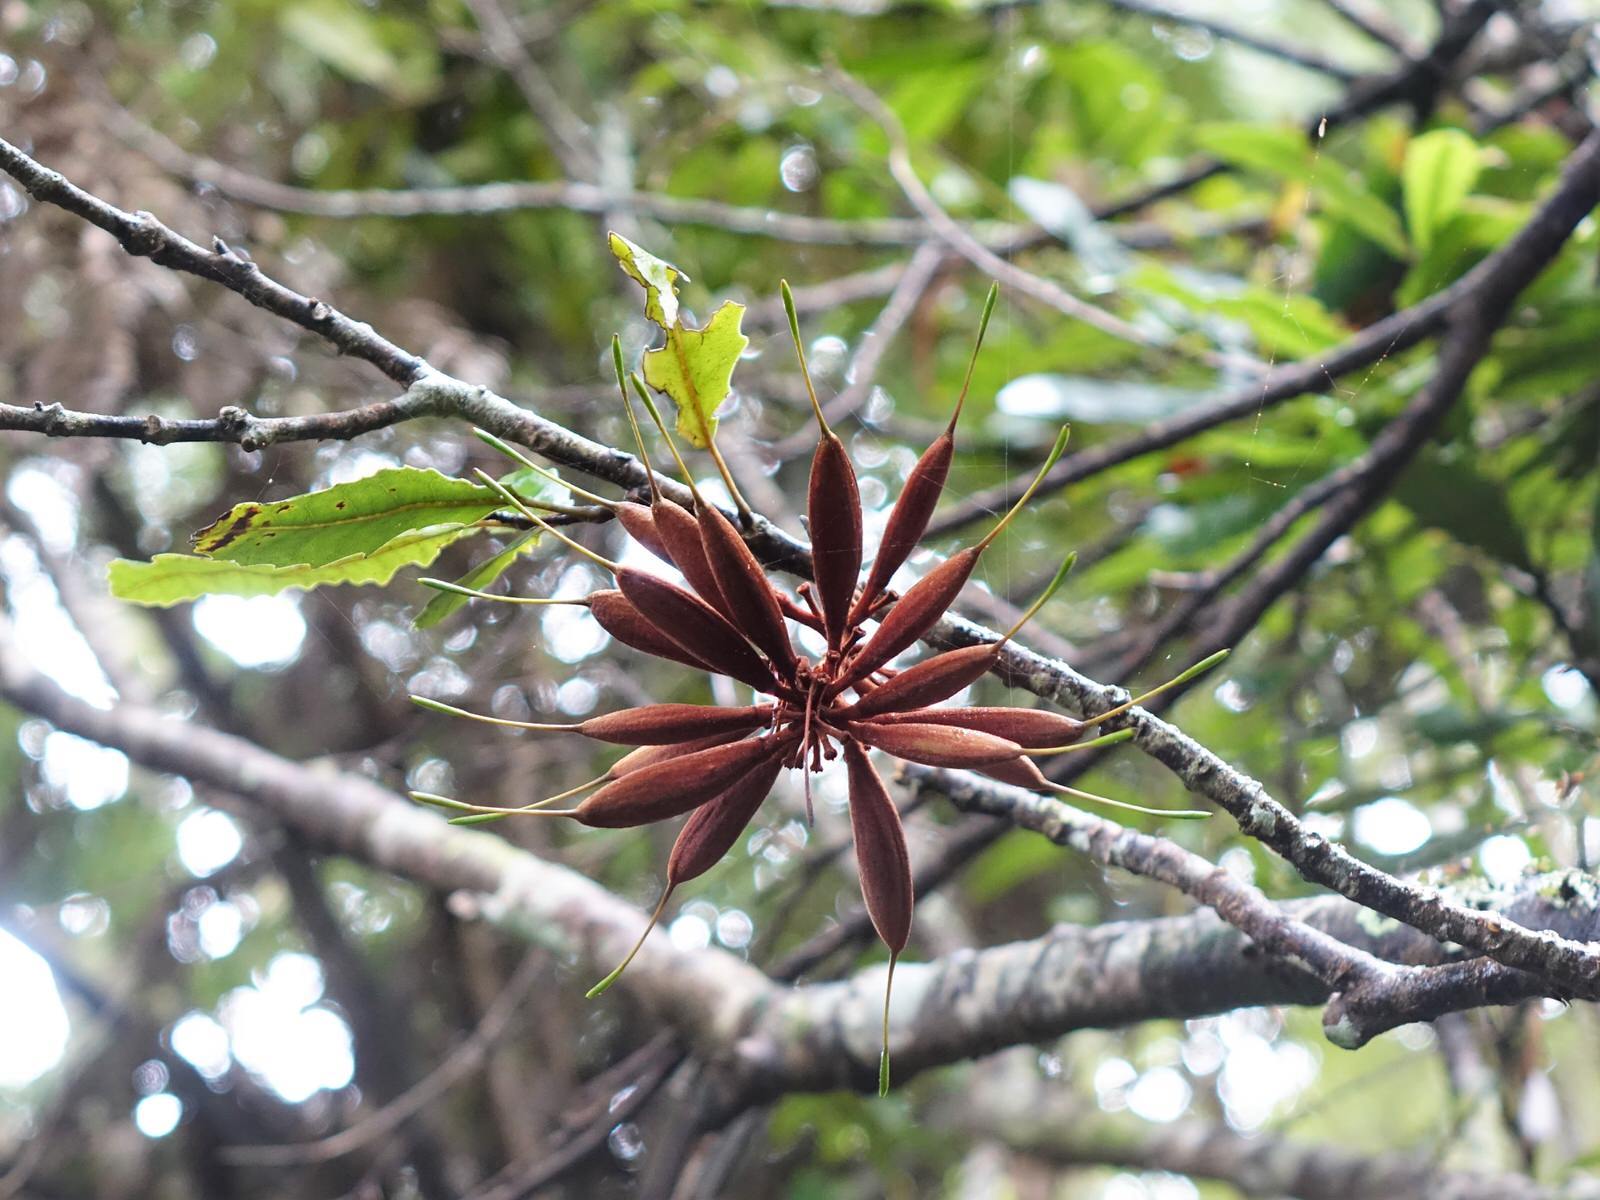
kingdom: Plantae
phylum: Tracheophyta
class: Magnoliopsida
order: Proteales
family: Proteaceae
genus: Knightia
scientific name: Knightia excelsa
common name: New zealand-honeysuckle
